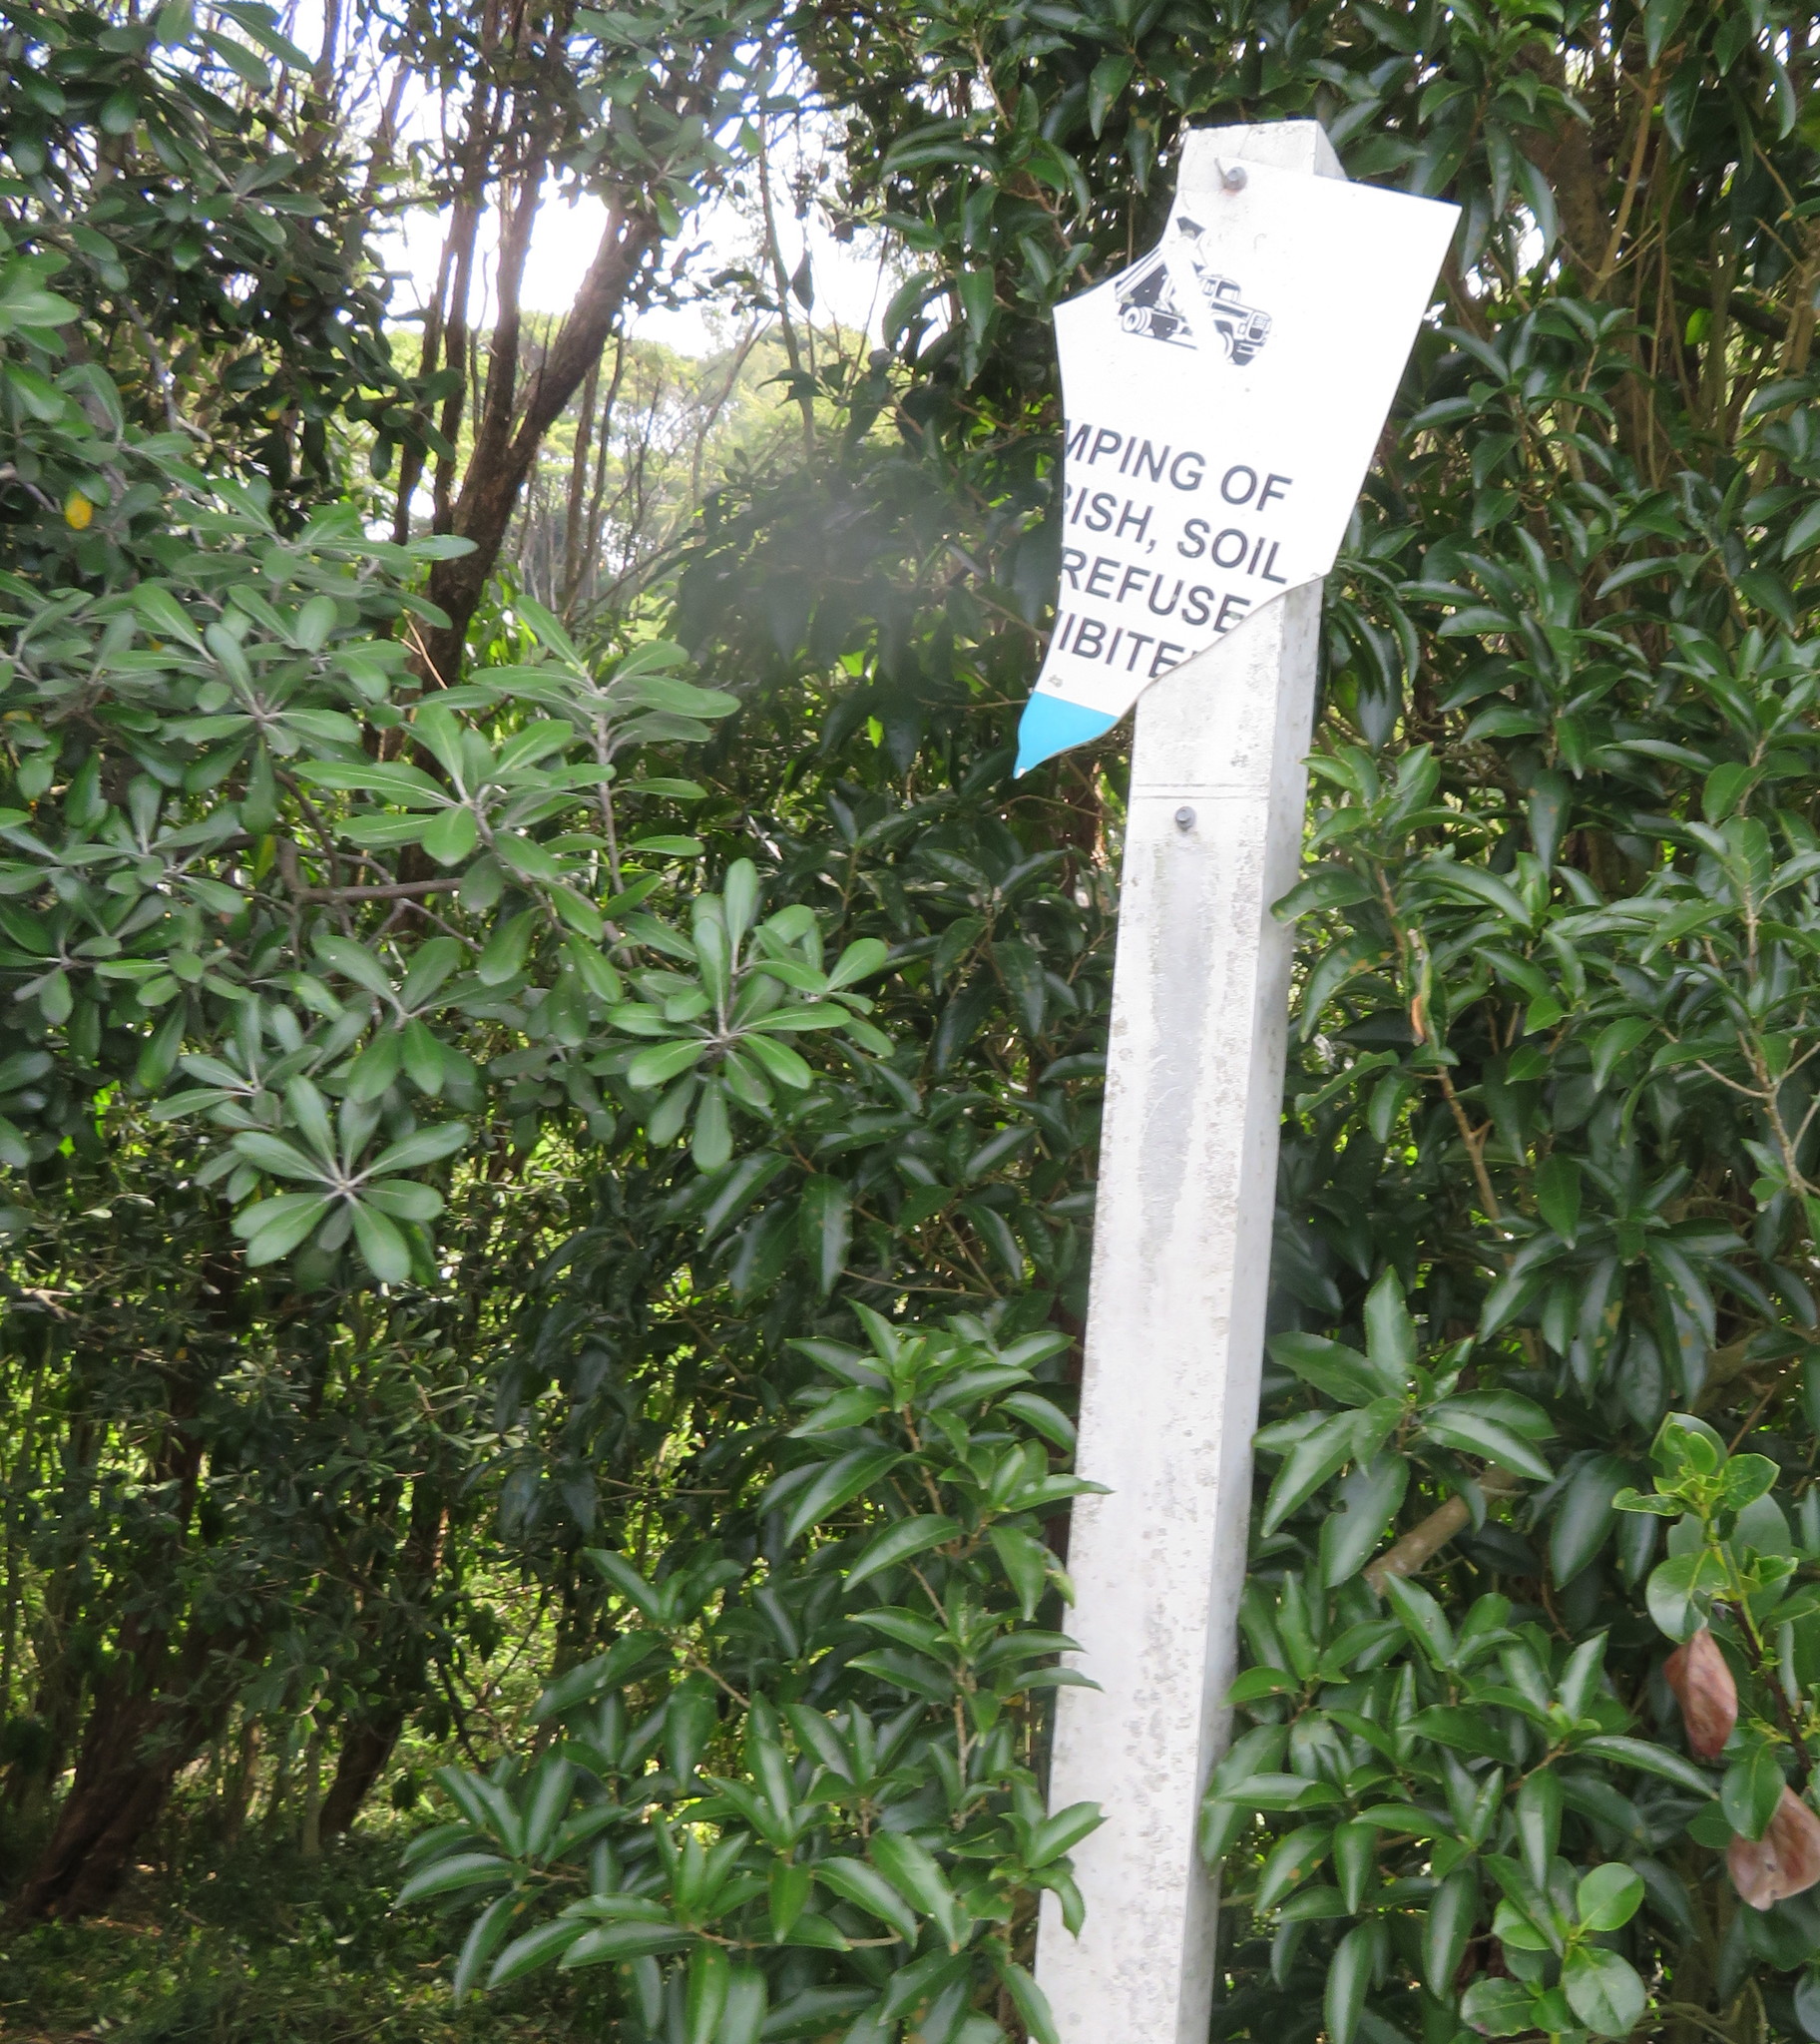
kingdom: Plantae
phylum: Tracheophyta
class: Magnoliopsida
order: Apiales
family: Pittosporaceae
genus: Pittosporum
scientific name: Pittosporum crassifolium
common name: Karo
